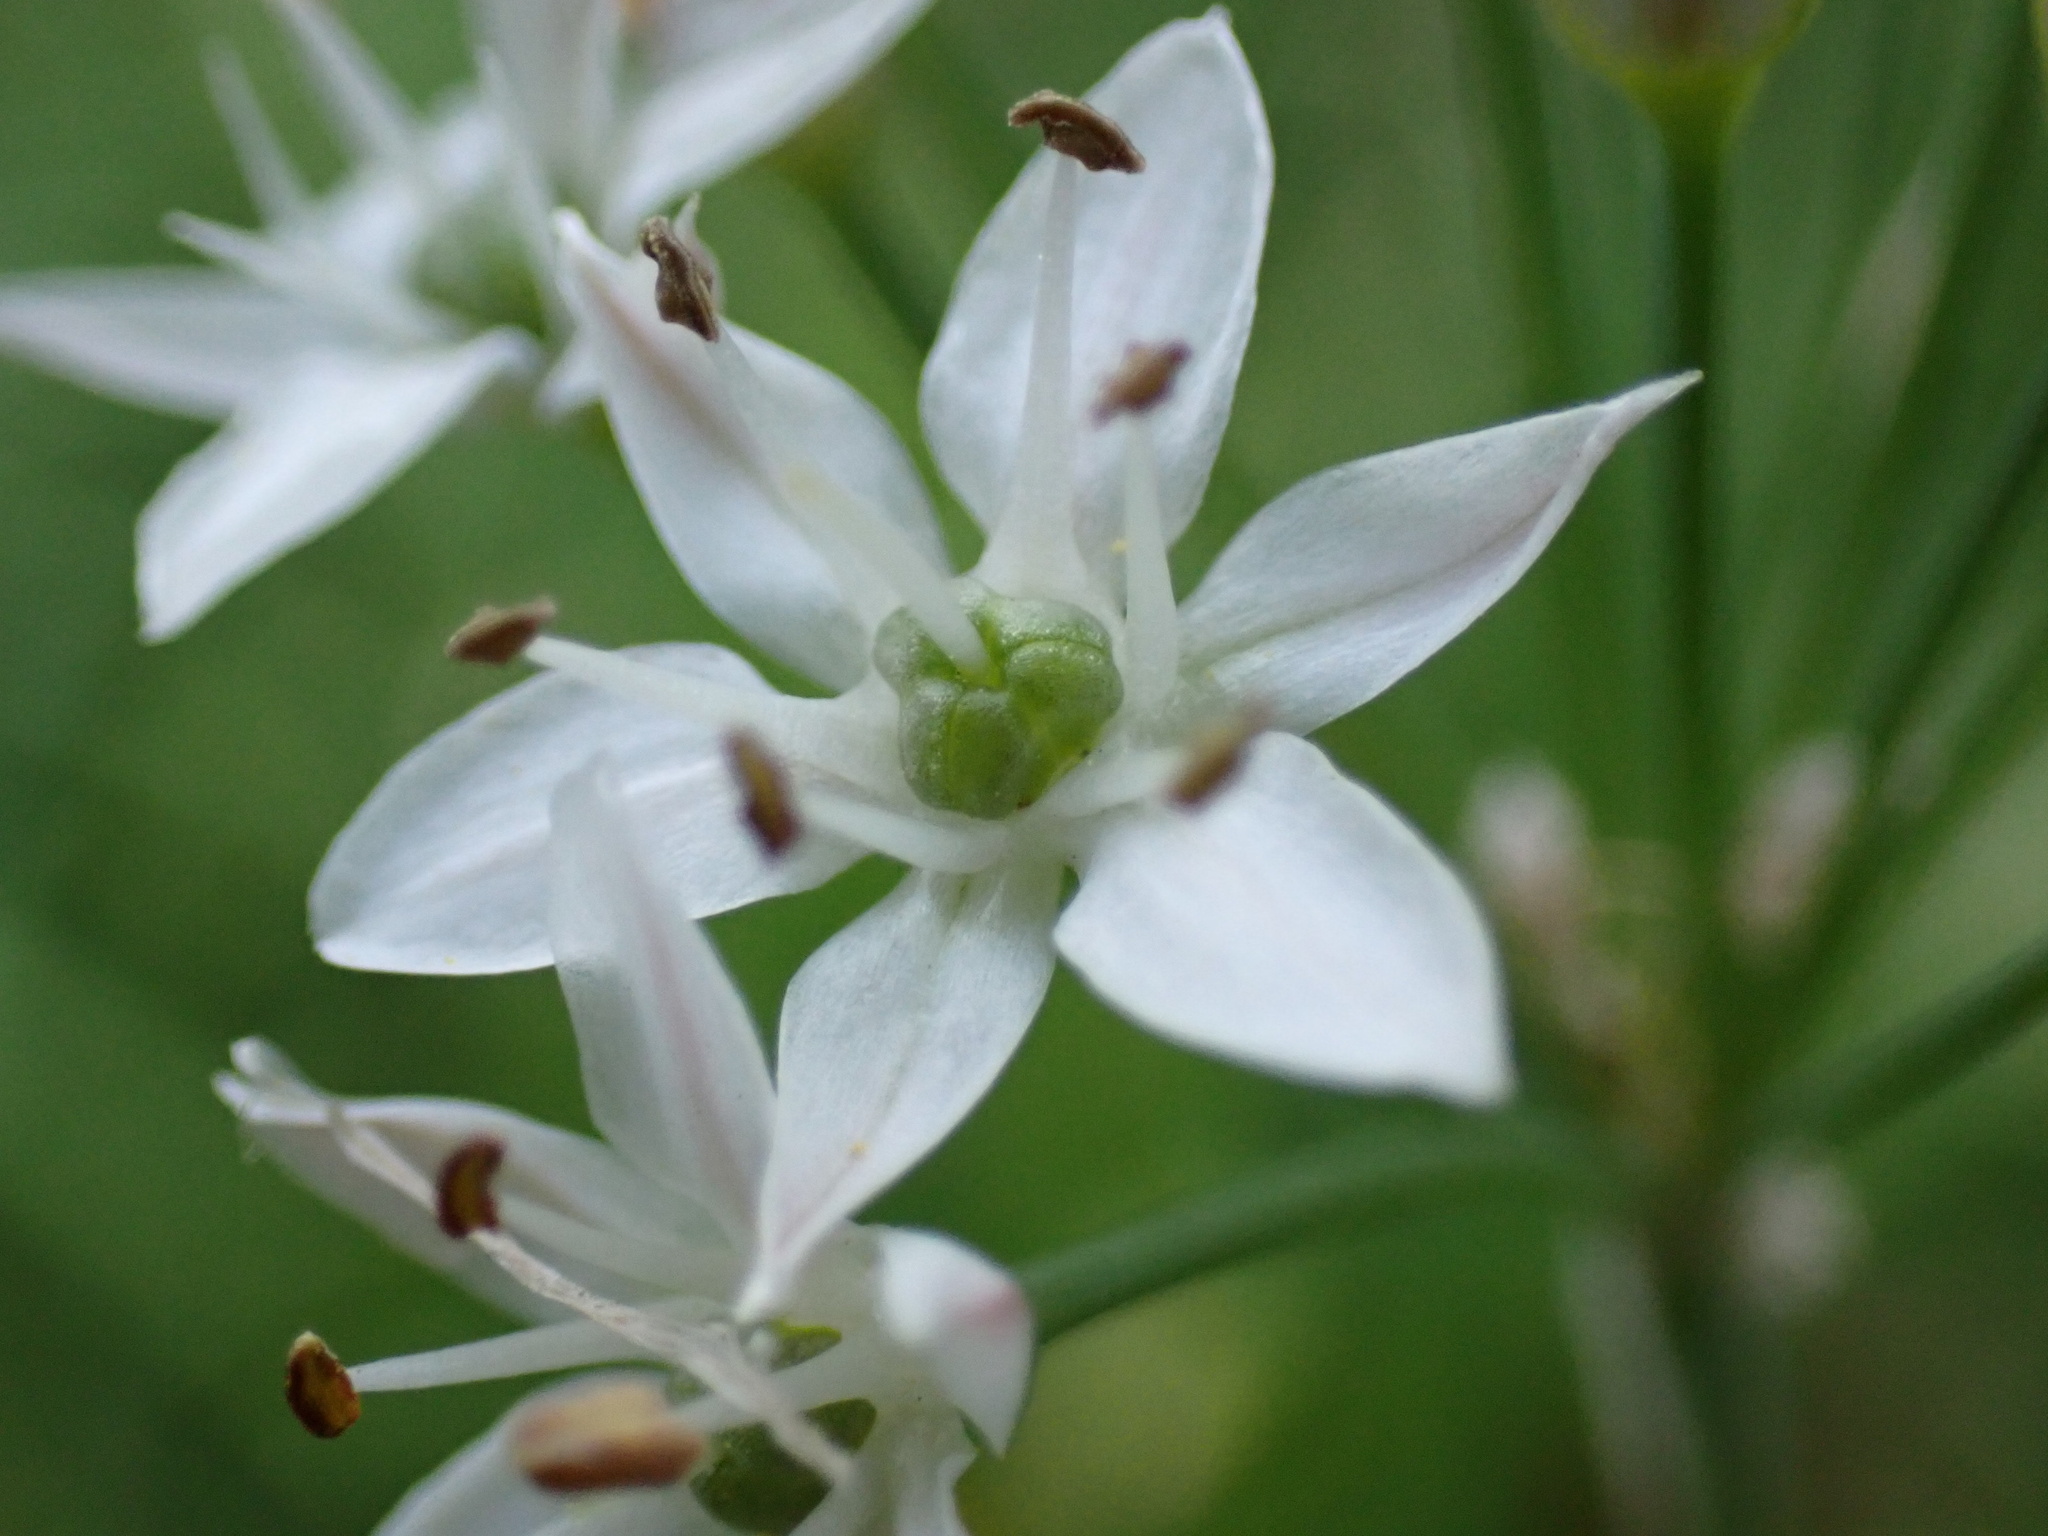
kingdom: Plantae
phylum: Tracheophyta
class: Liliopsida
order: Asparagales
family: Amaryllidaceae
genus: Allium
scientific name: Allium tuberosum
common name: Chinese chives
